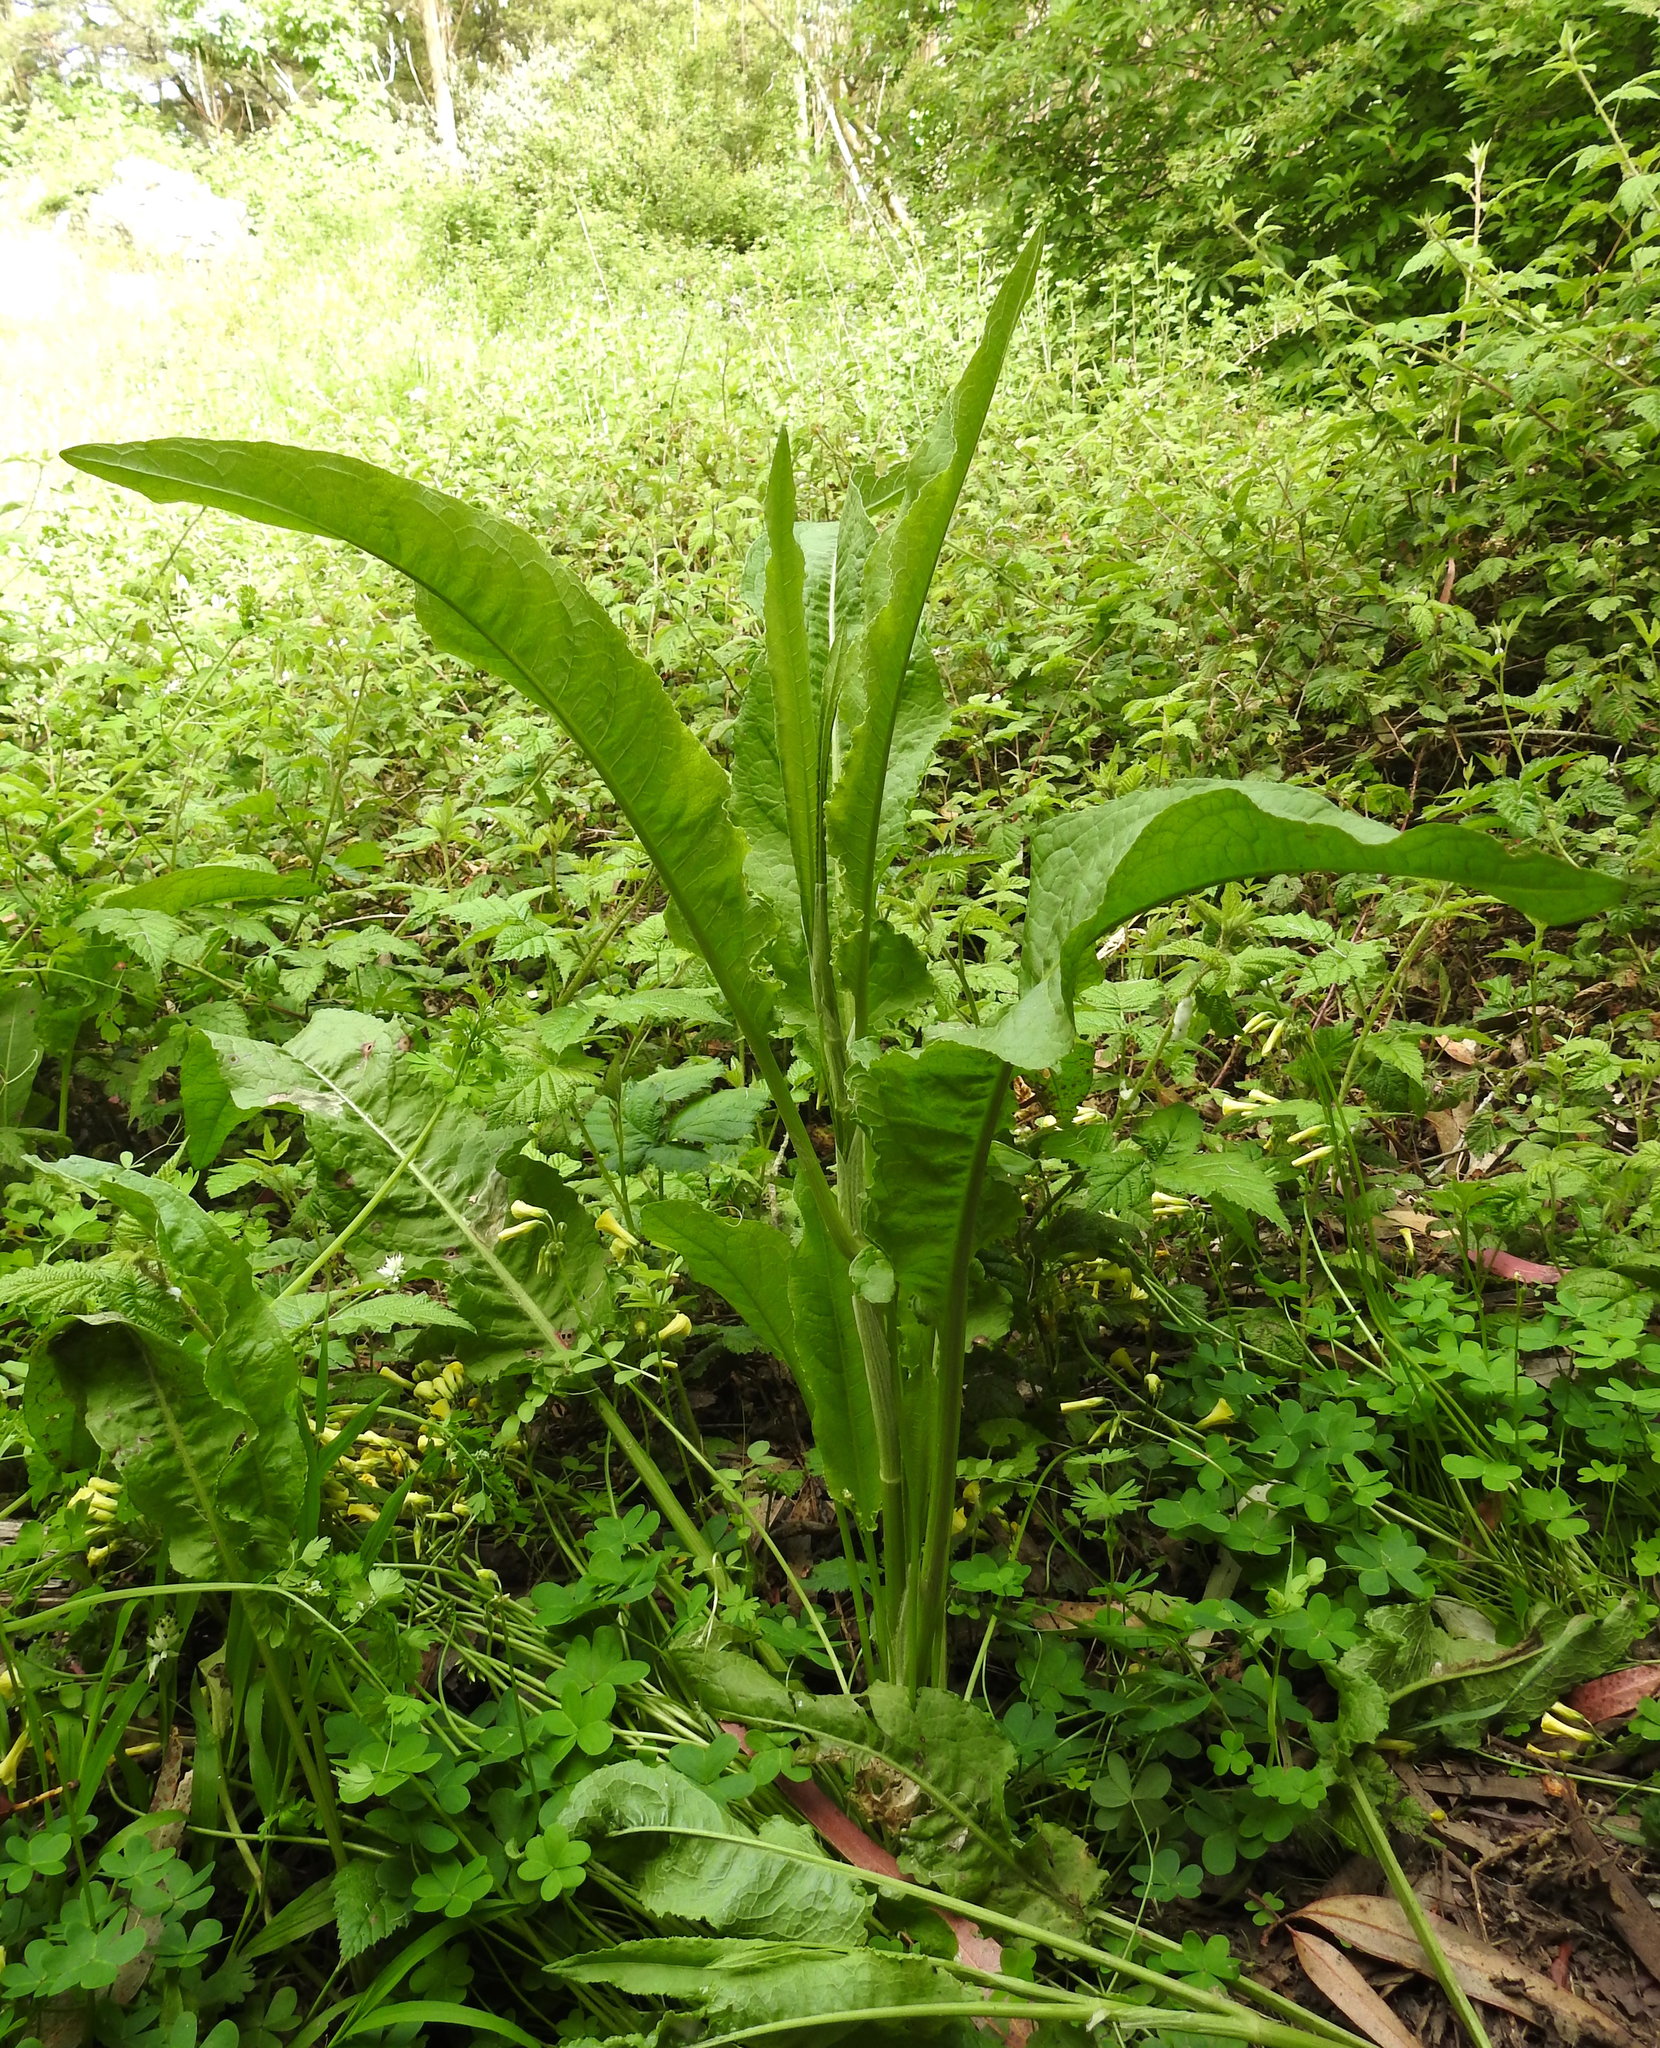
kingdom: Plantae
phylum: Tracheophyta
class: Magnoliopsida
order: Caryophyllales
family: Polygonaceae
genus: Rumex
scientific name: Rumex crispus
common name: Curled dock
